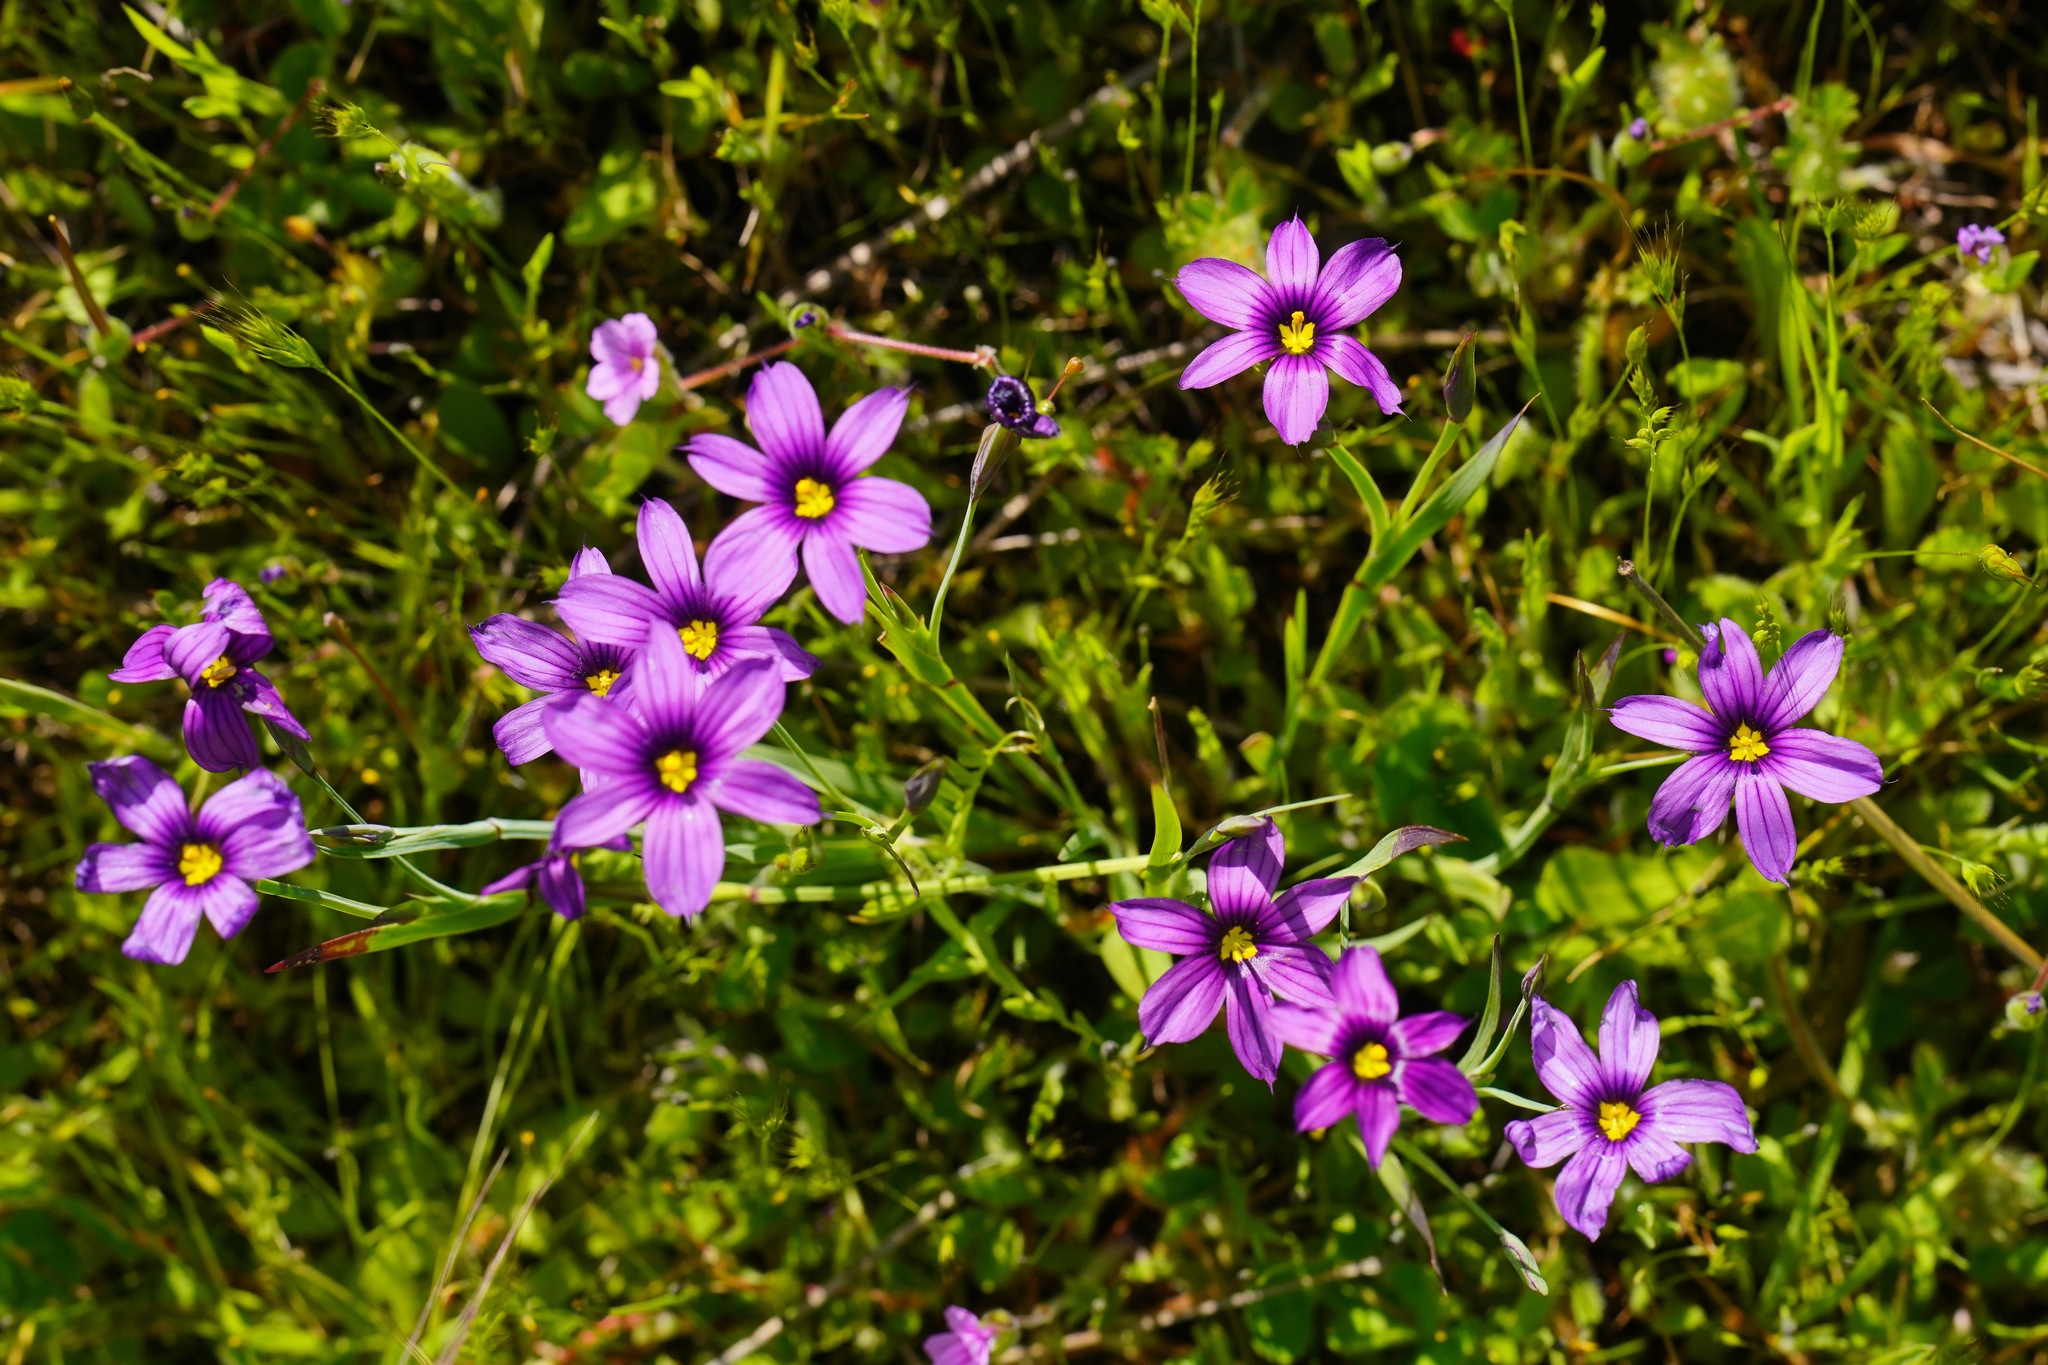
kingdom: Plantae
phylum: Tracheophyta
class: Liliopsida
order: Asparagales
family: Iridaceae
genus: Sisyrinchium
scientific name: Sisyrinchium bellum
